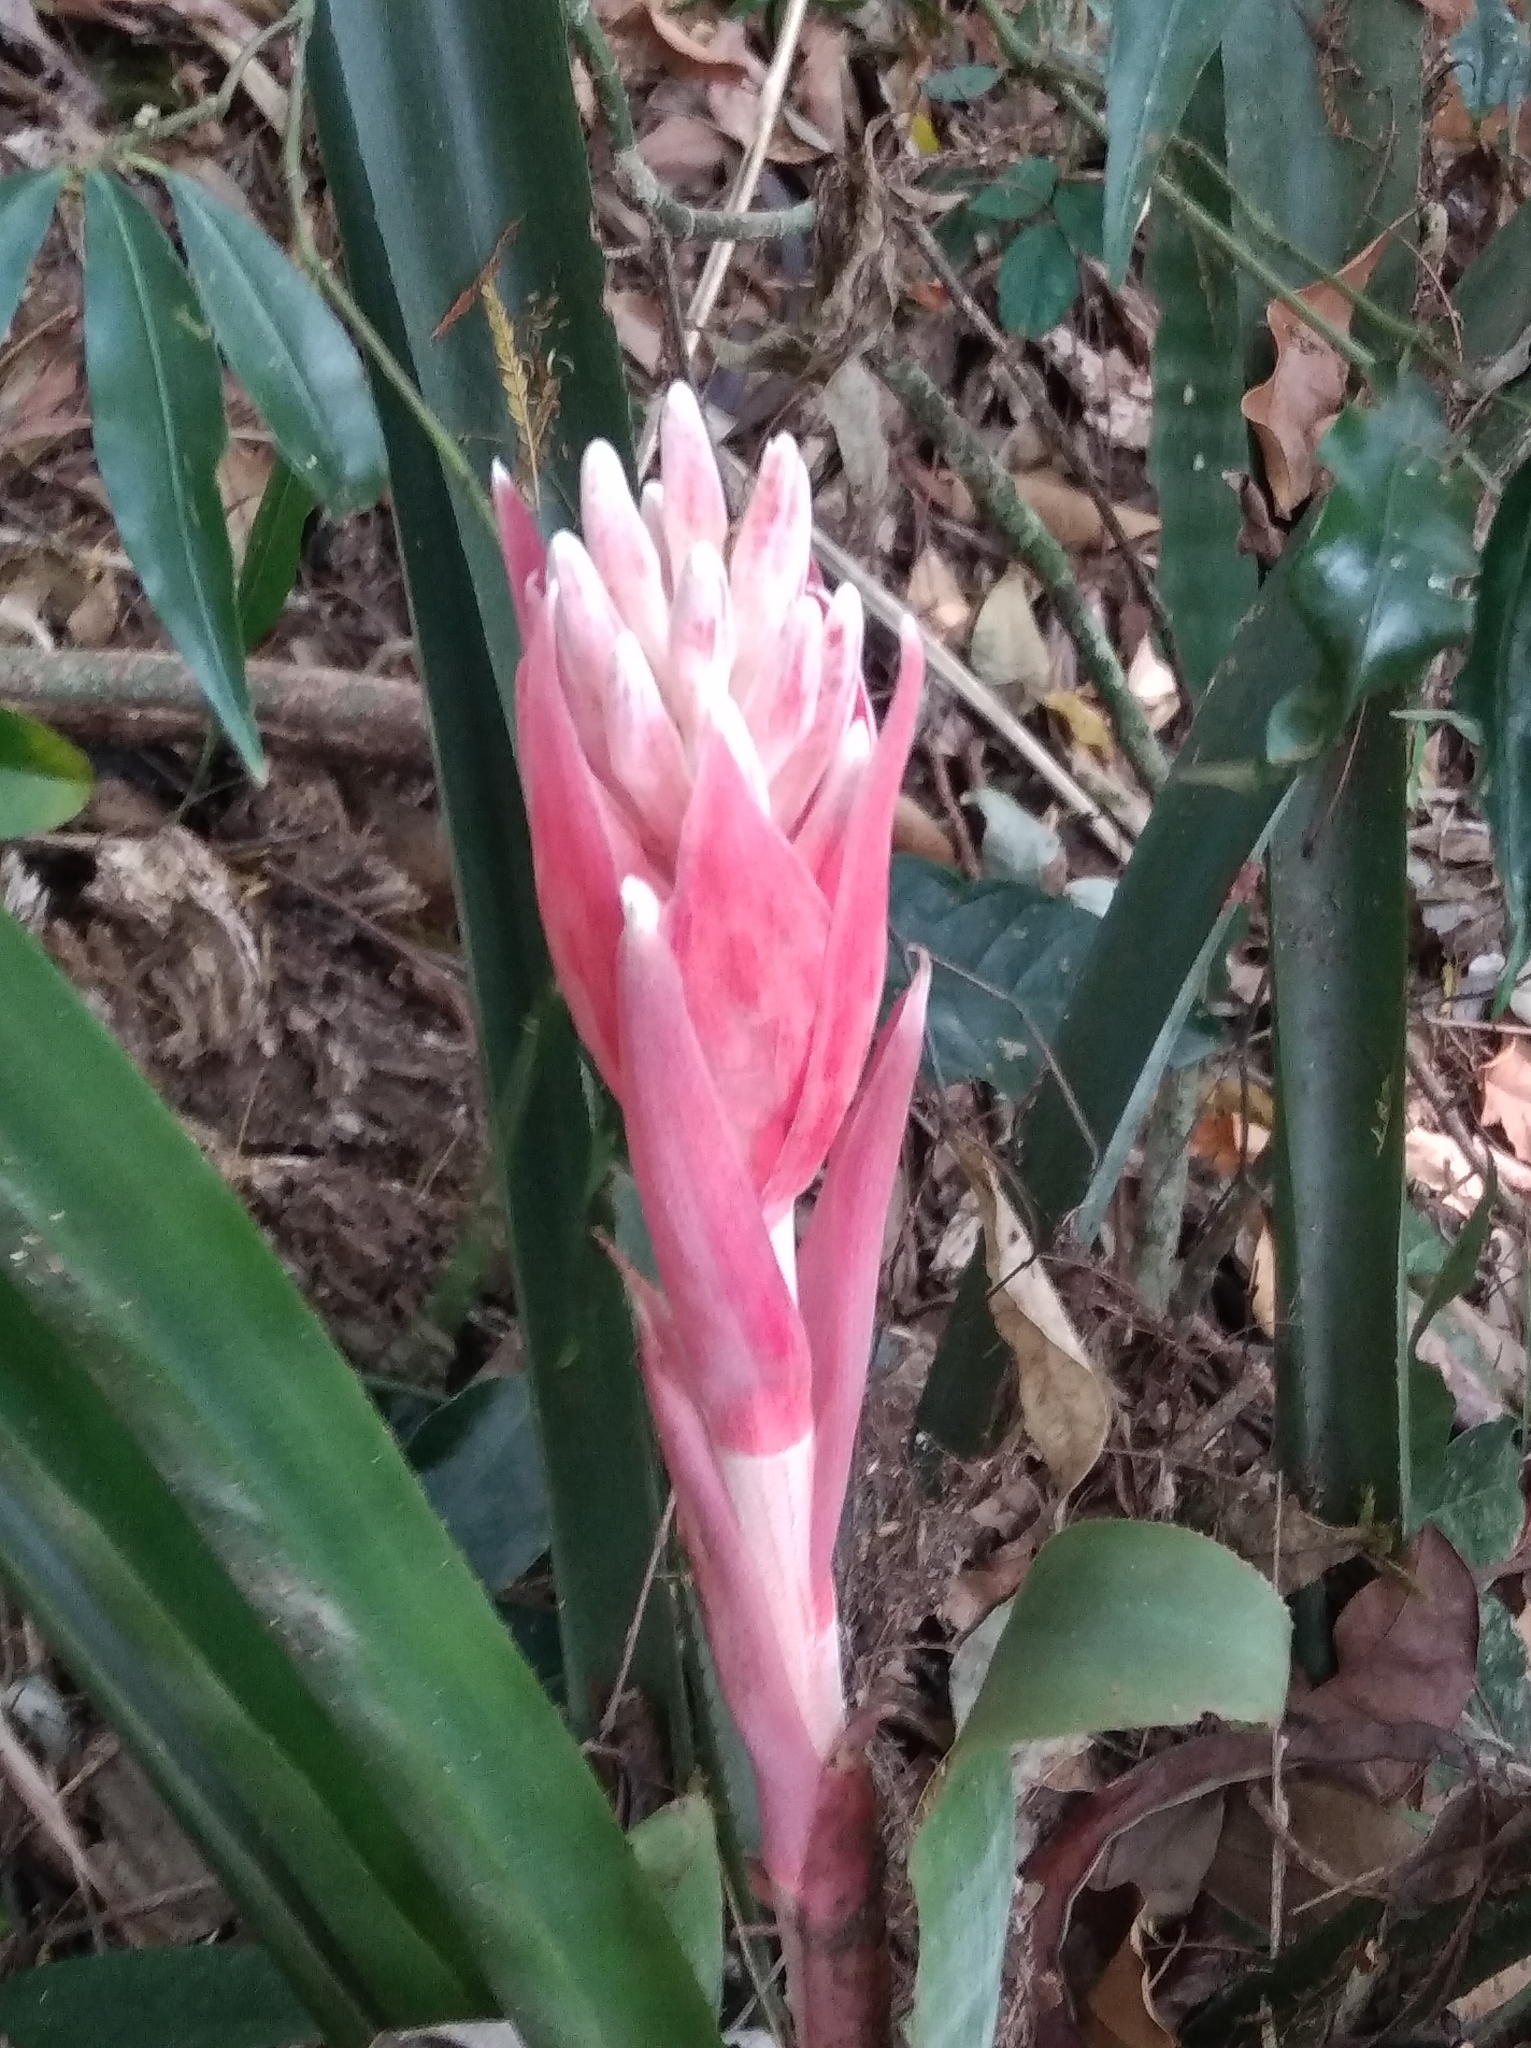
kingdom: Plantae
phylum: Tracheophyta
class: Liliopsida
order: Poales
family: Bromeliaceae
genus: Billbergia
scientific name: Billbergia pyramidalis
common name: Foolproofplant
